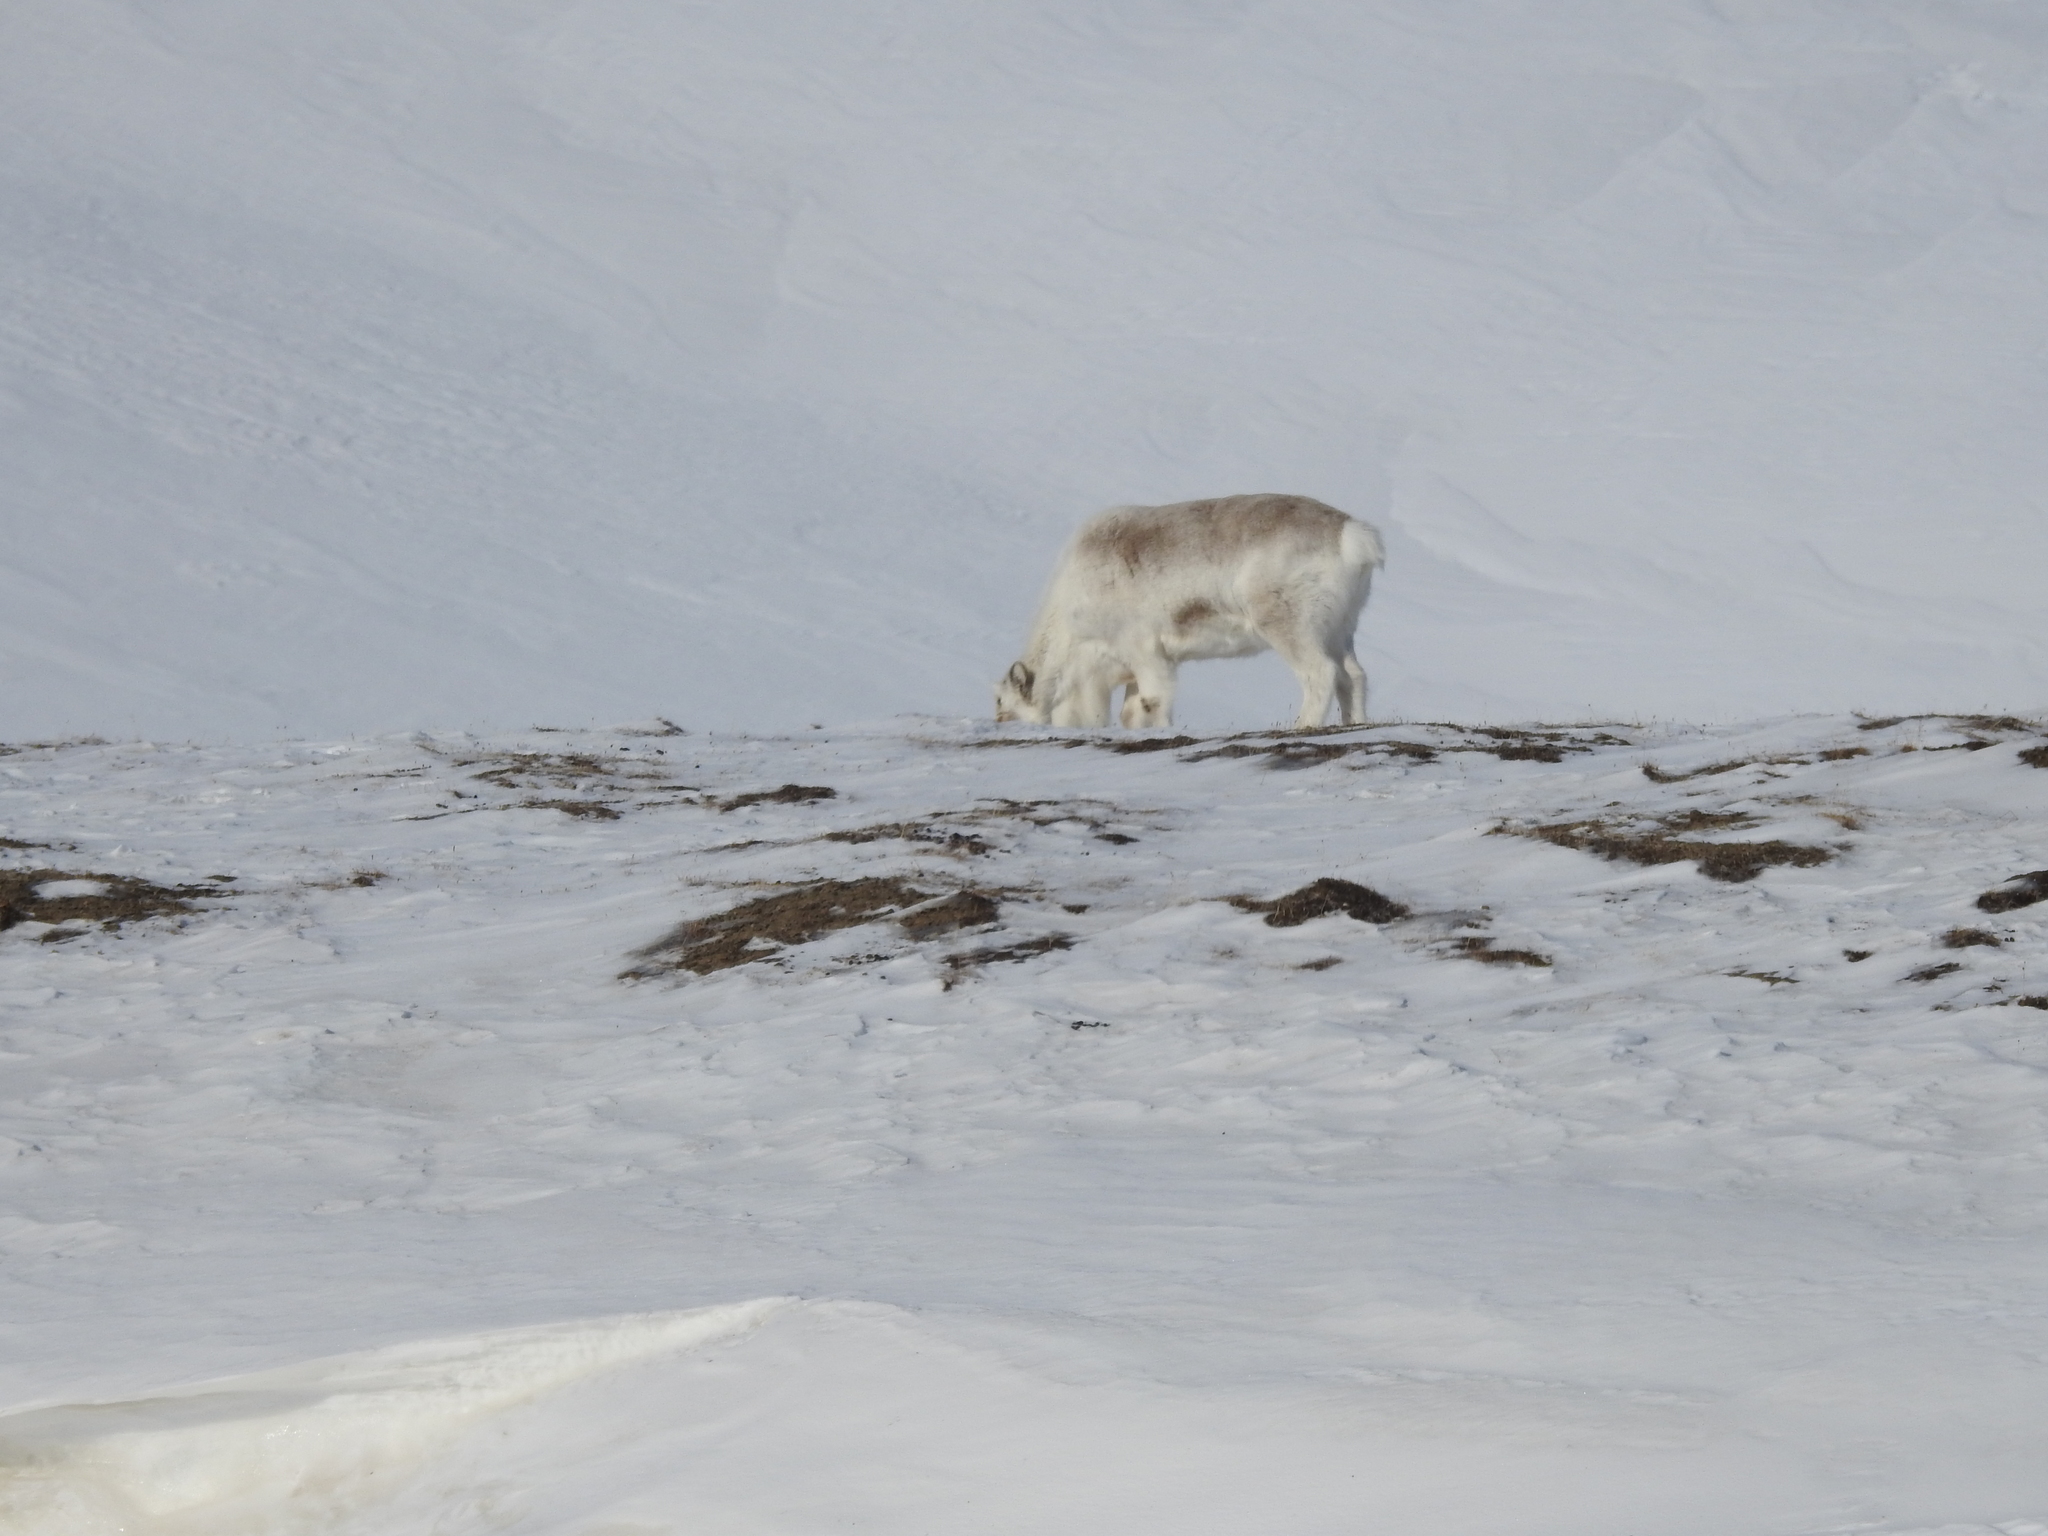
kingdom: Animalia
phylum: Chordata
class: Mammalia
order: Artiodactyla
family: Cervidae
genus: Rangifer
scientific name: Rangifer tarandus
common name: Reindeer
